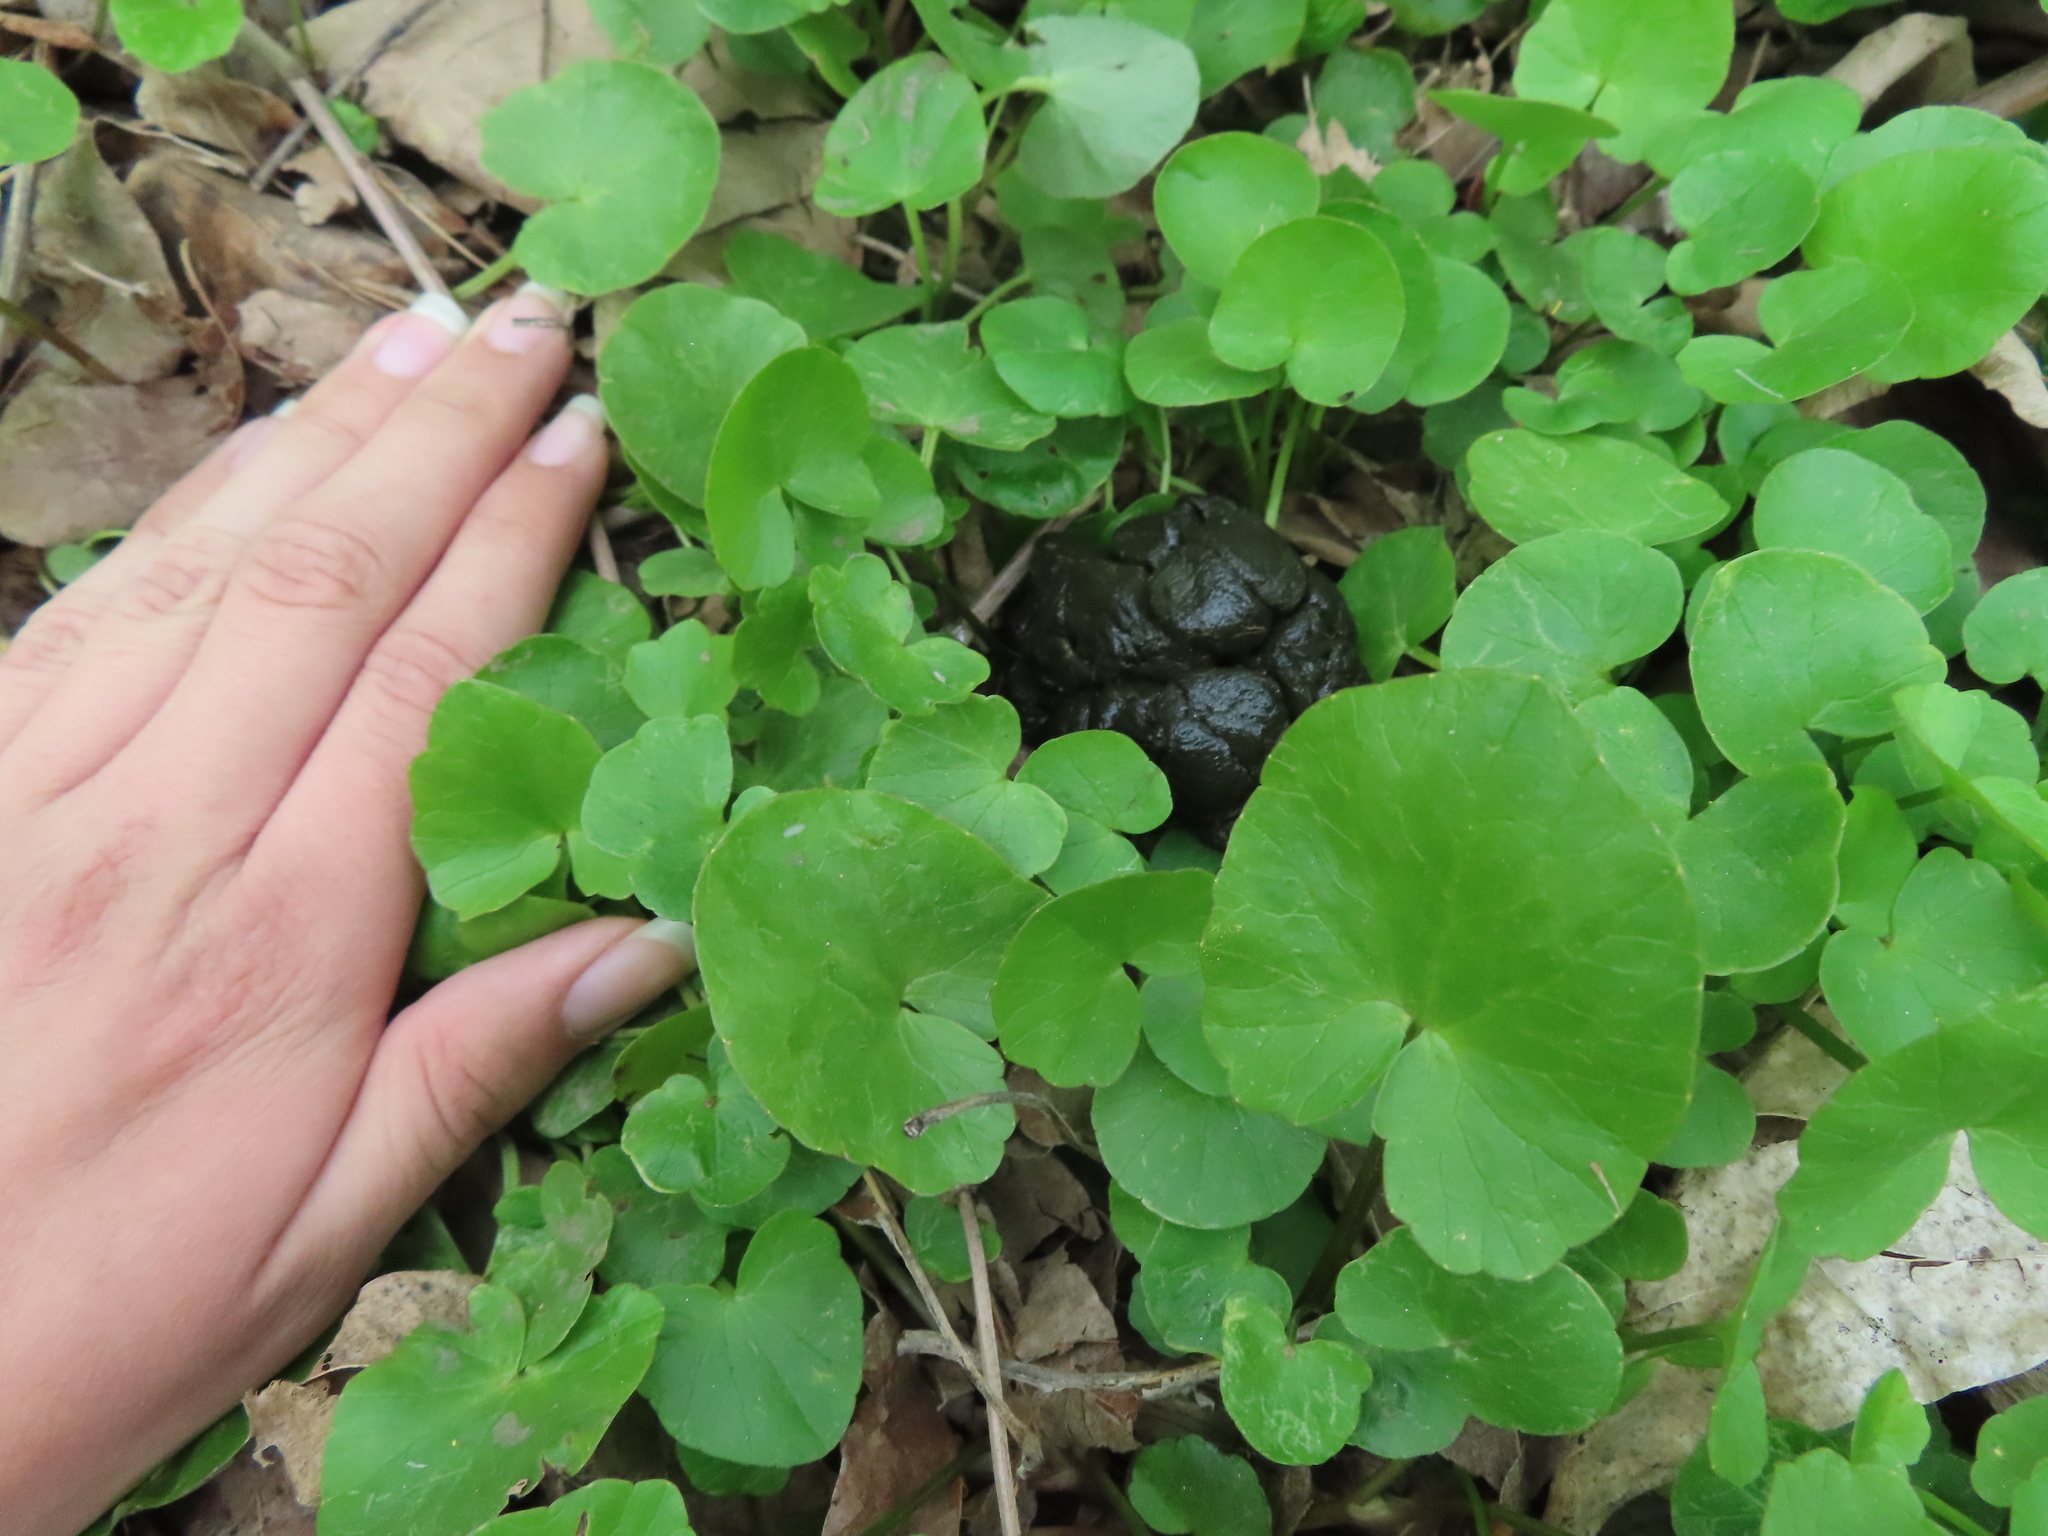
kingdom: Animalia
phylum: Chordata
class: Mammalia
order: Artiodactyla
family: Cervidae
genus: Odocoileus
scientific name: Odocoileus virginianus
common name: White-tailed deer
